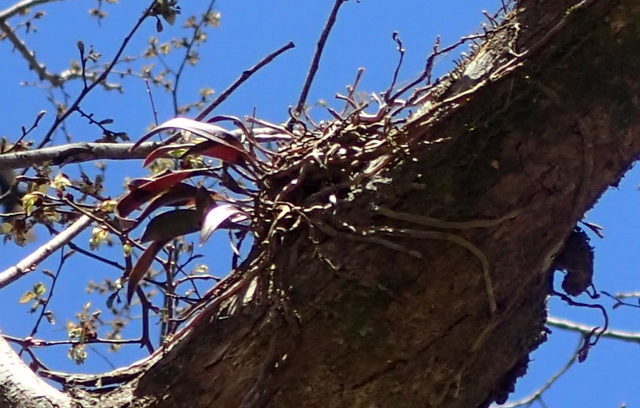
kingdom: Plantae
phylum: Tracheophyta
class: Liliopsida
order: Asparagales
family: Orchidaceae
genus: Epidendrum
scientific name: Epidendrum conopseum
